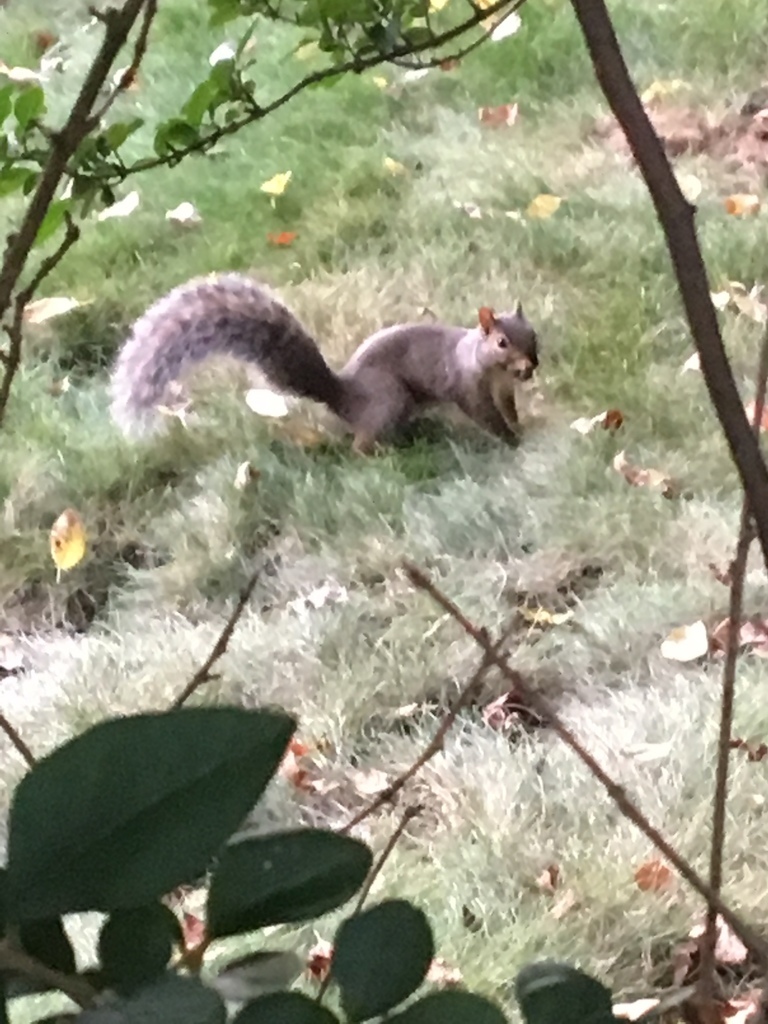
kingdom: Animalia
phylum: Chordata
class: Mammalia
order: Rodentia
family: Sciuridae
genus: Sciurus
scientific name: Sciurus carolinensis
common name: Eastern gray squirrel
